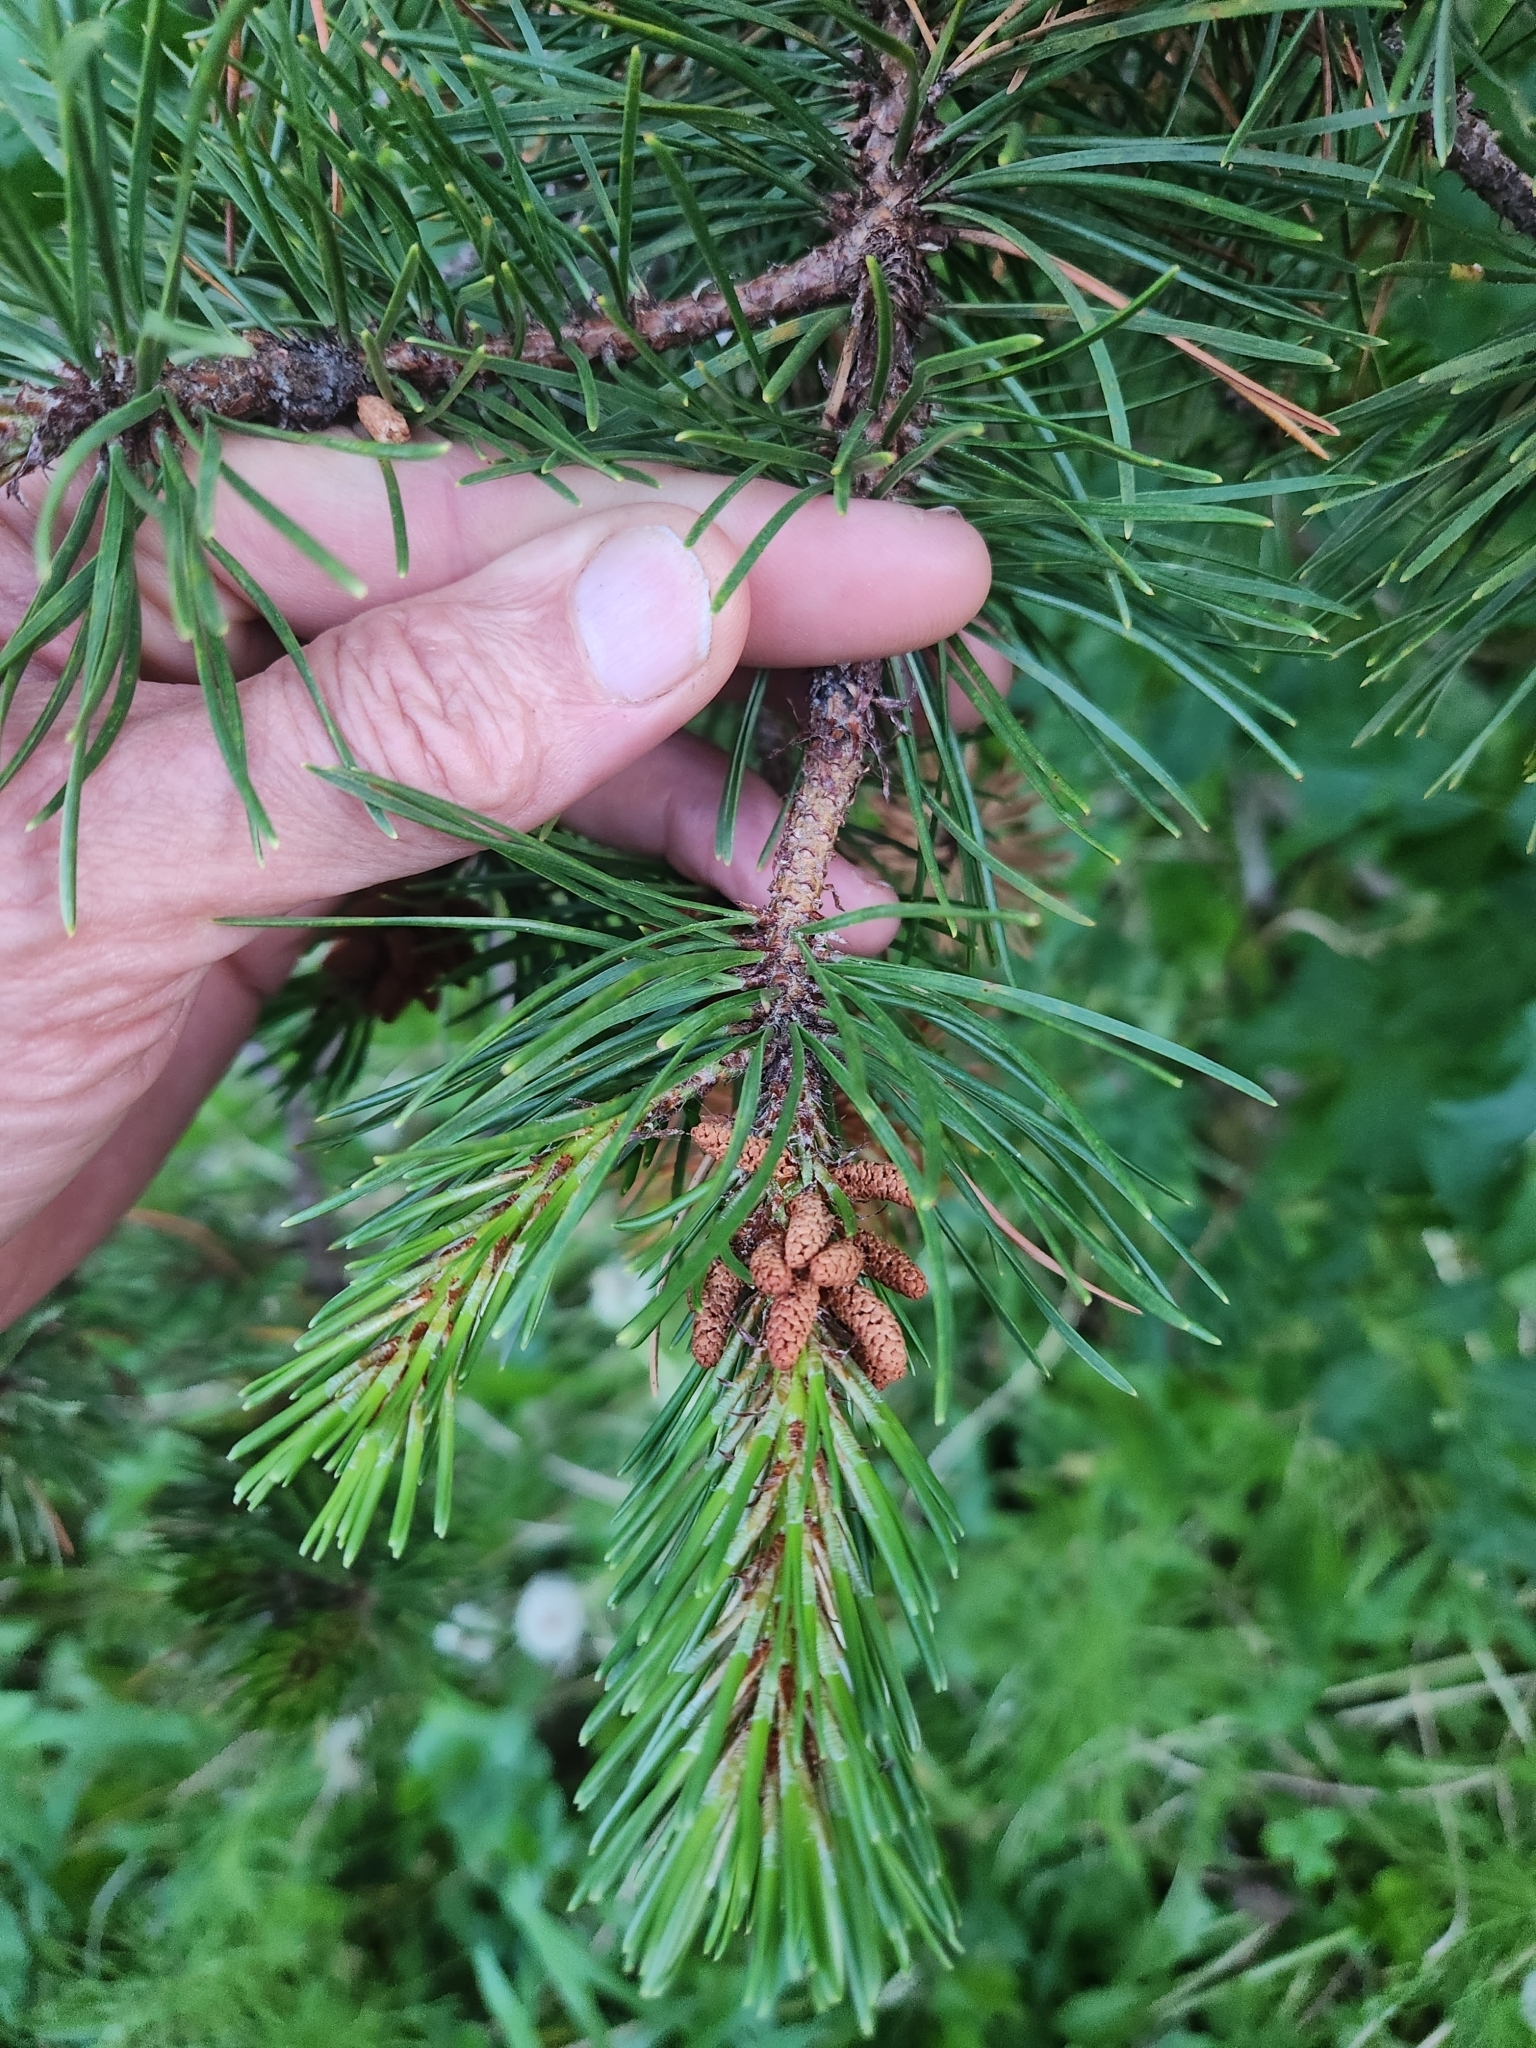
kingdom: Plantae
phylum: Tracheophyta
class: Pinopsida
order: Pinales
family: Pinaceae
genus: Pinus
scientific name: Pinus contorta
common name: Lodgepole pine
